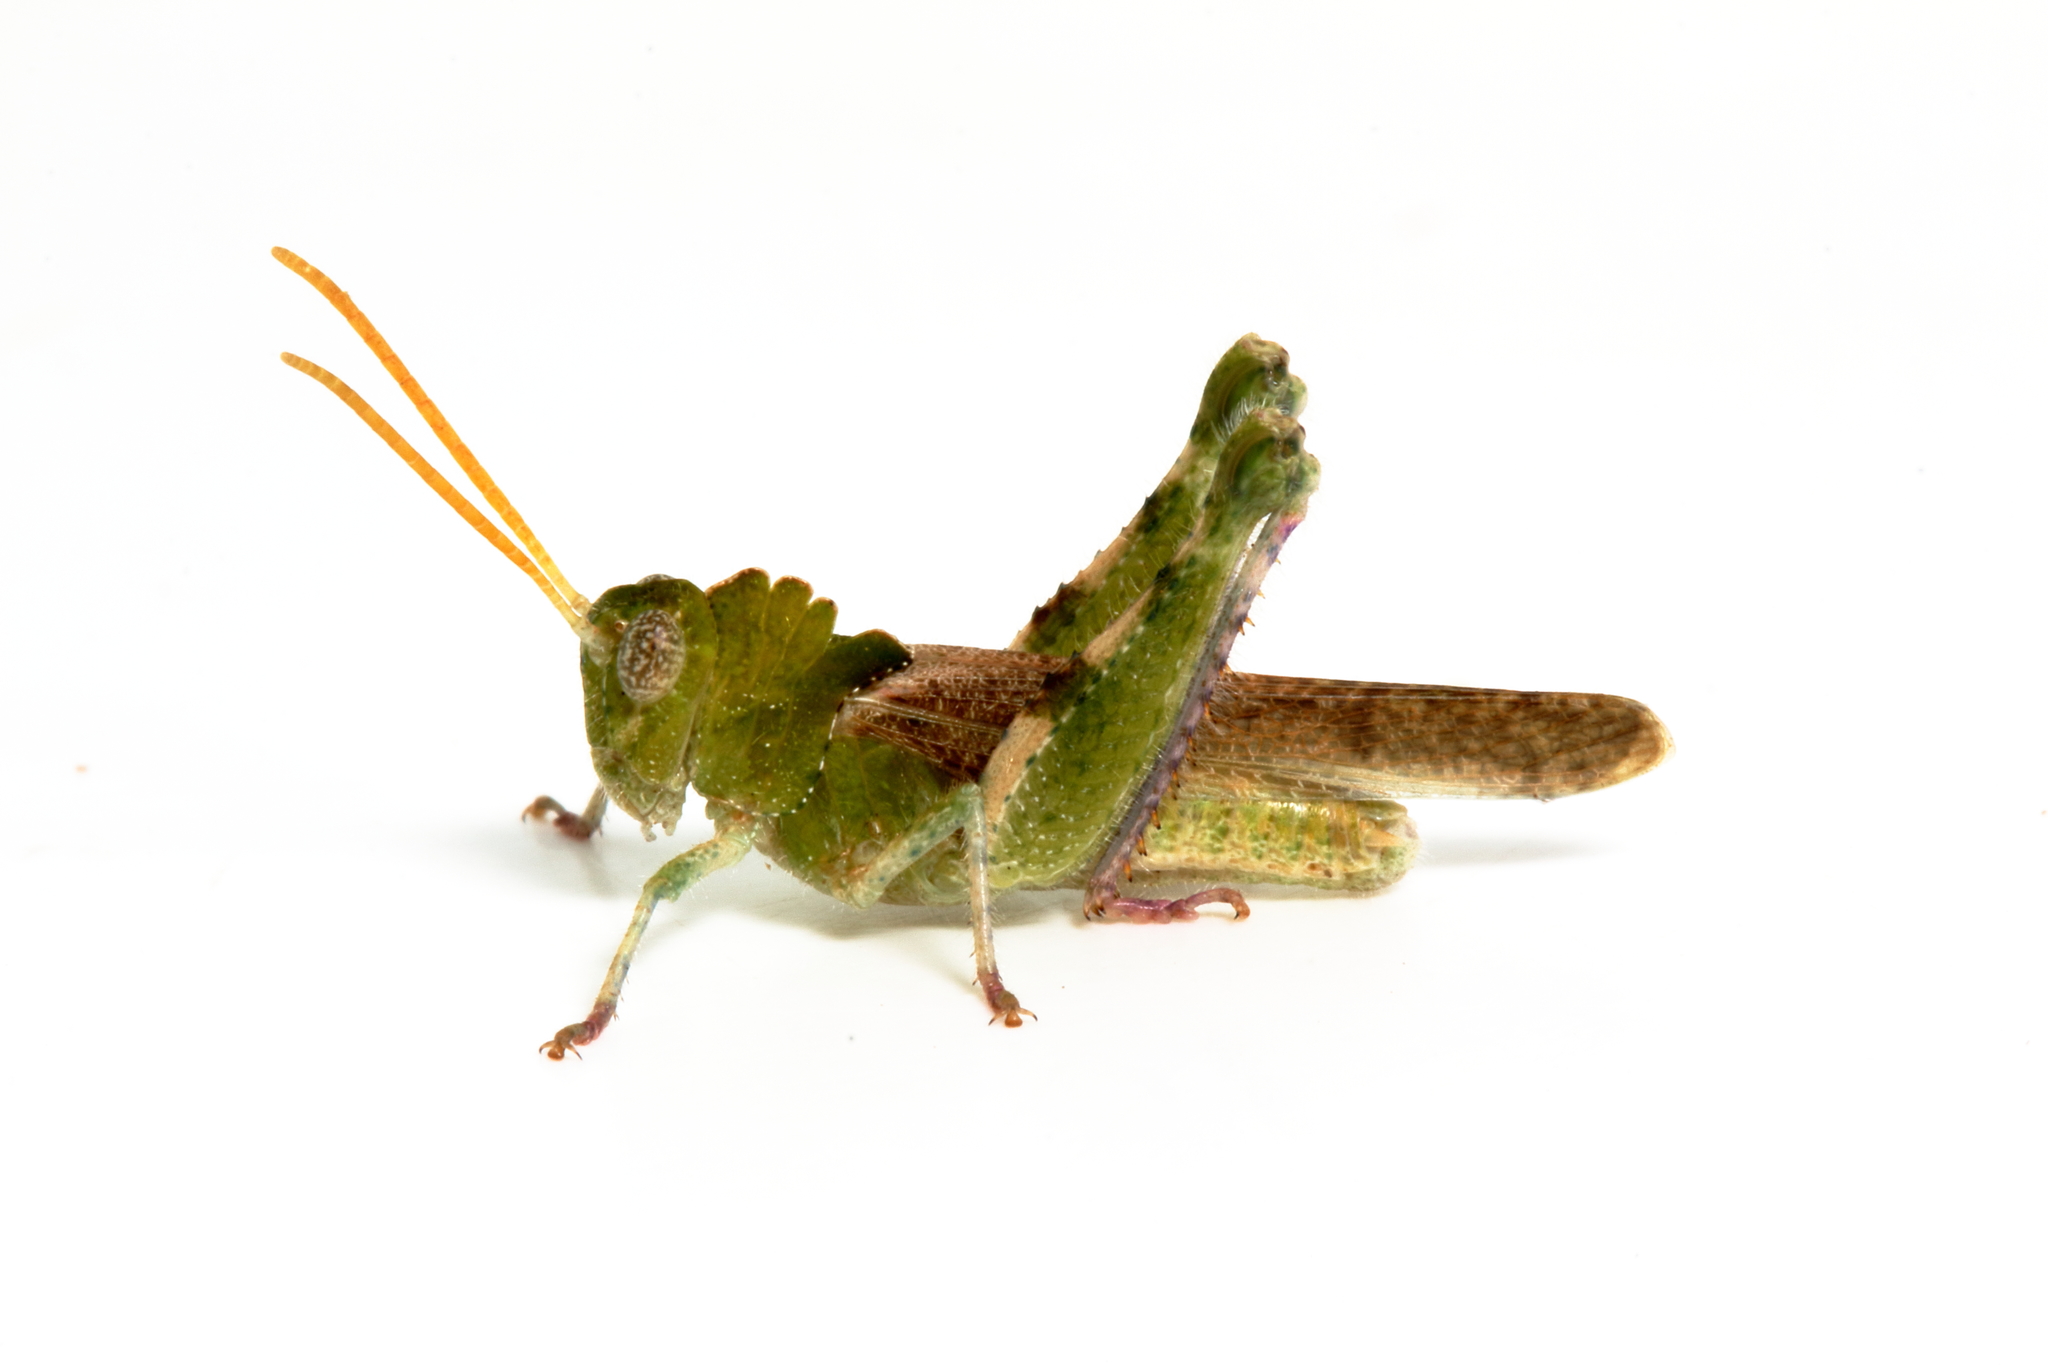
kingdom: Animalia
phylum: Arthropoda
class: Insecta
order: Orthoptera
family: Acrididae
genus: Ecphantus
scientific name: Ecphantus quadrilobus
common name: Crested tooth grinder
